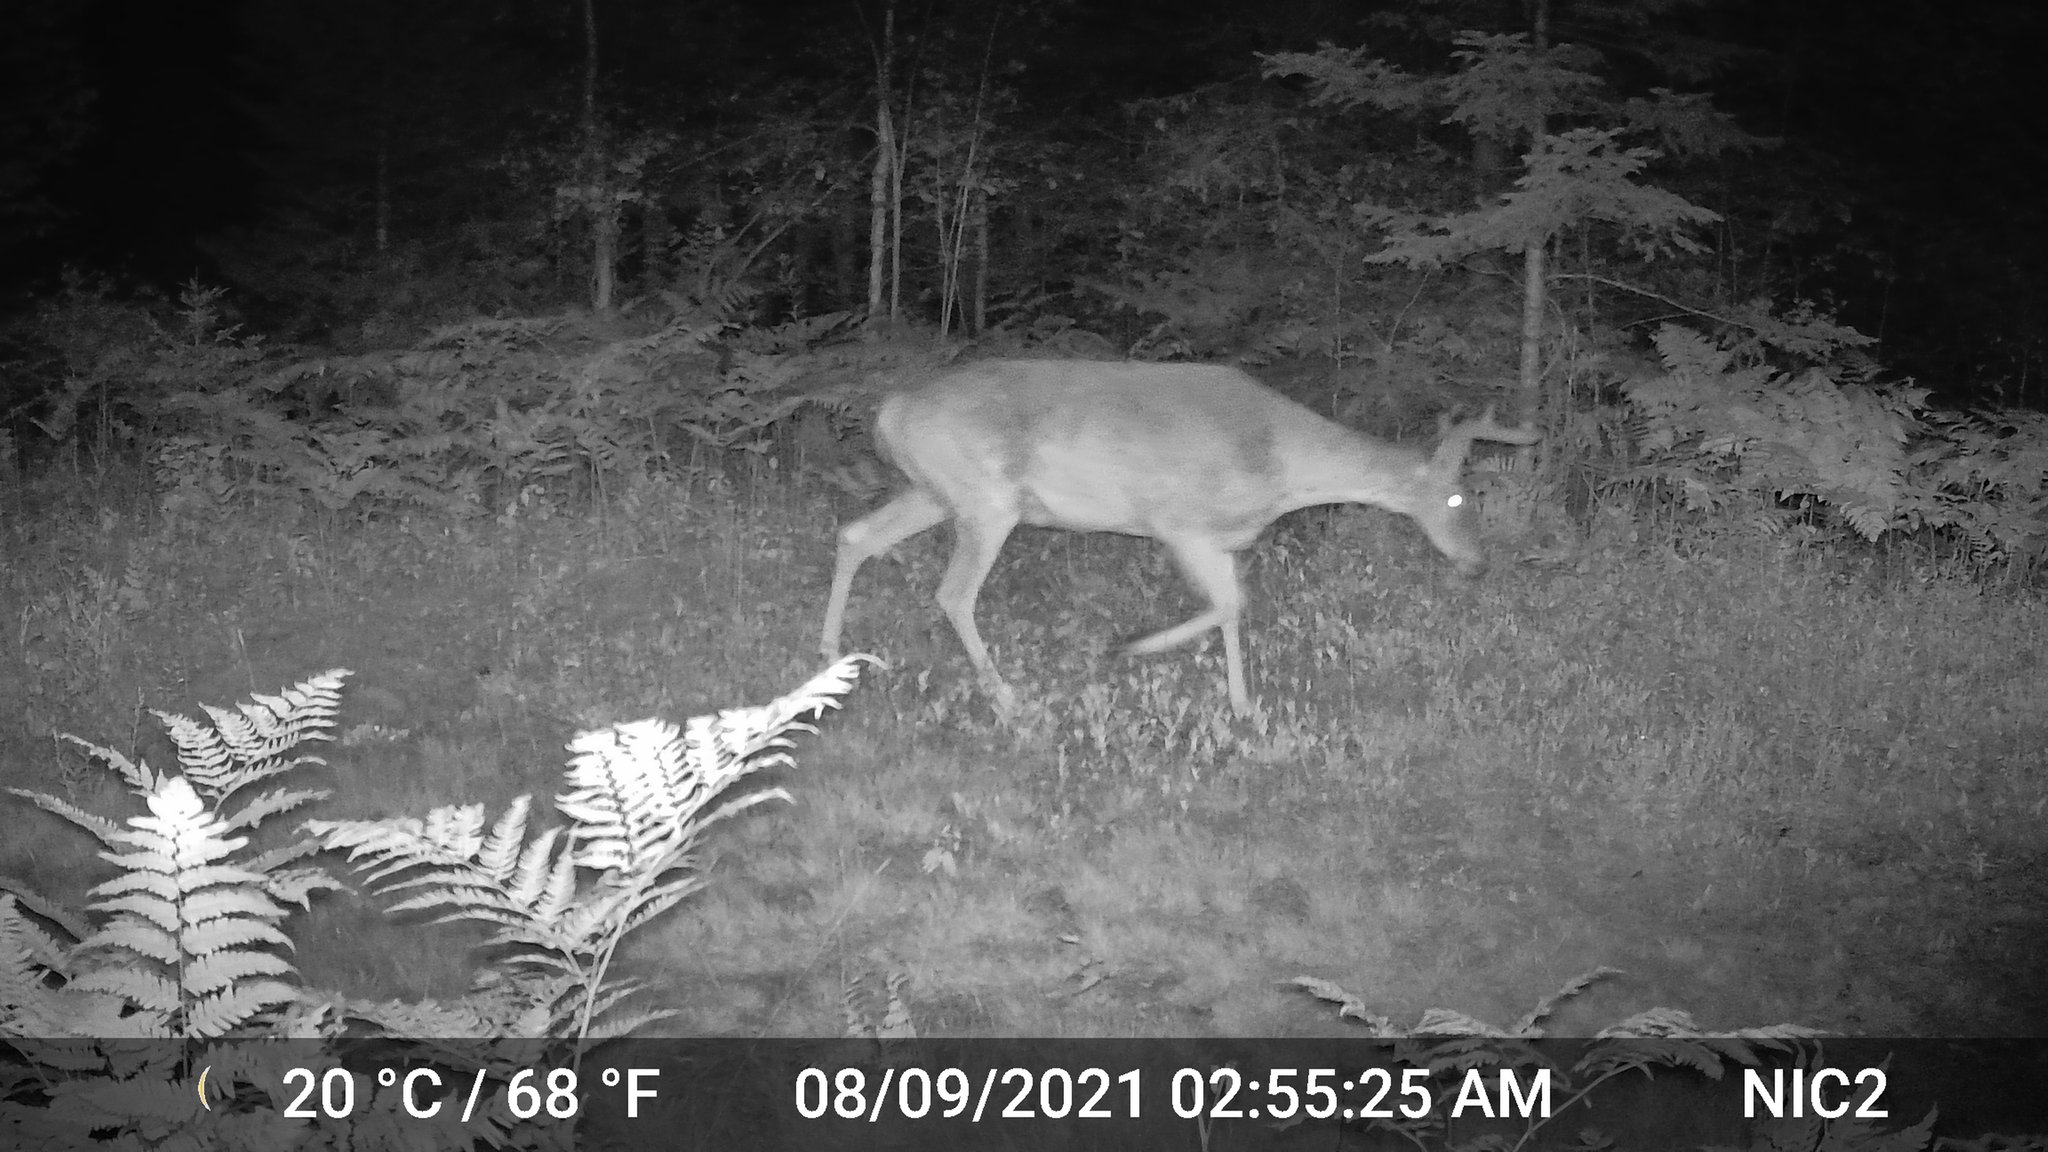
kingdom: Animalia
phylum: Chordata
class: Mammalia
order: Artiodactyla
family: Cervidae
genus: Odocoileus
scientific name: Odocoileus virginianus
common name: White-tailed deer
